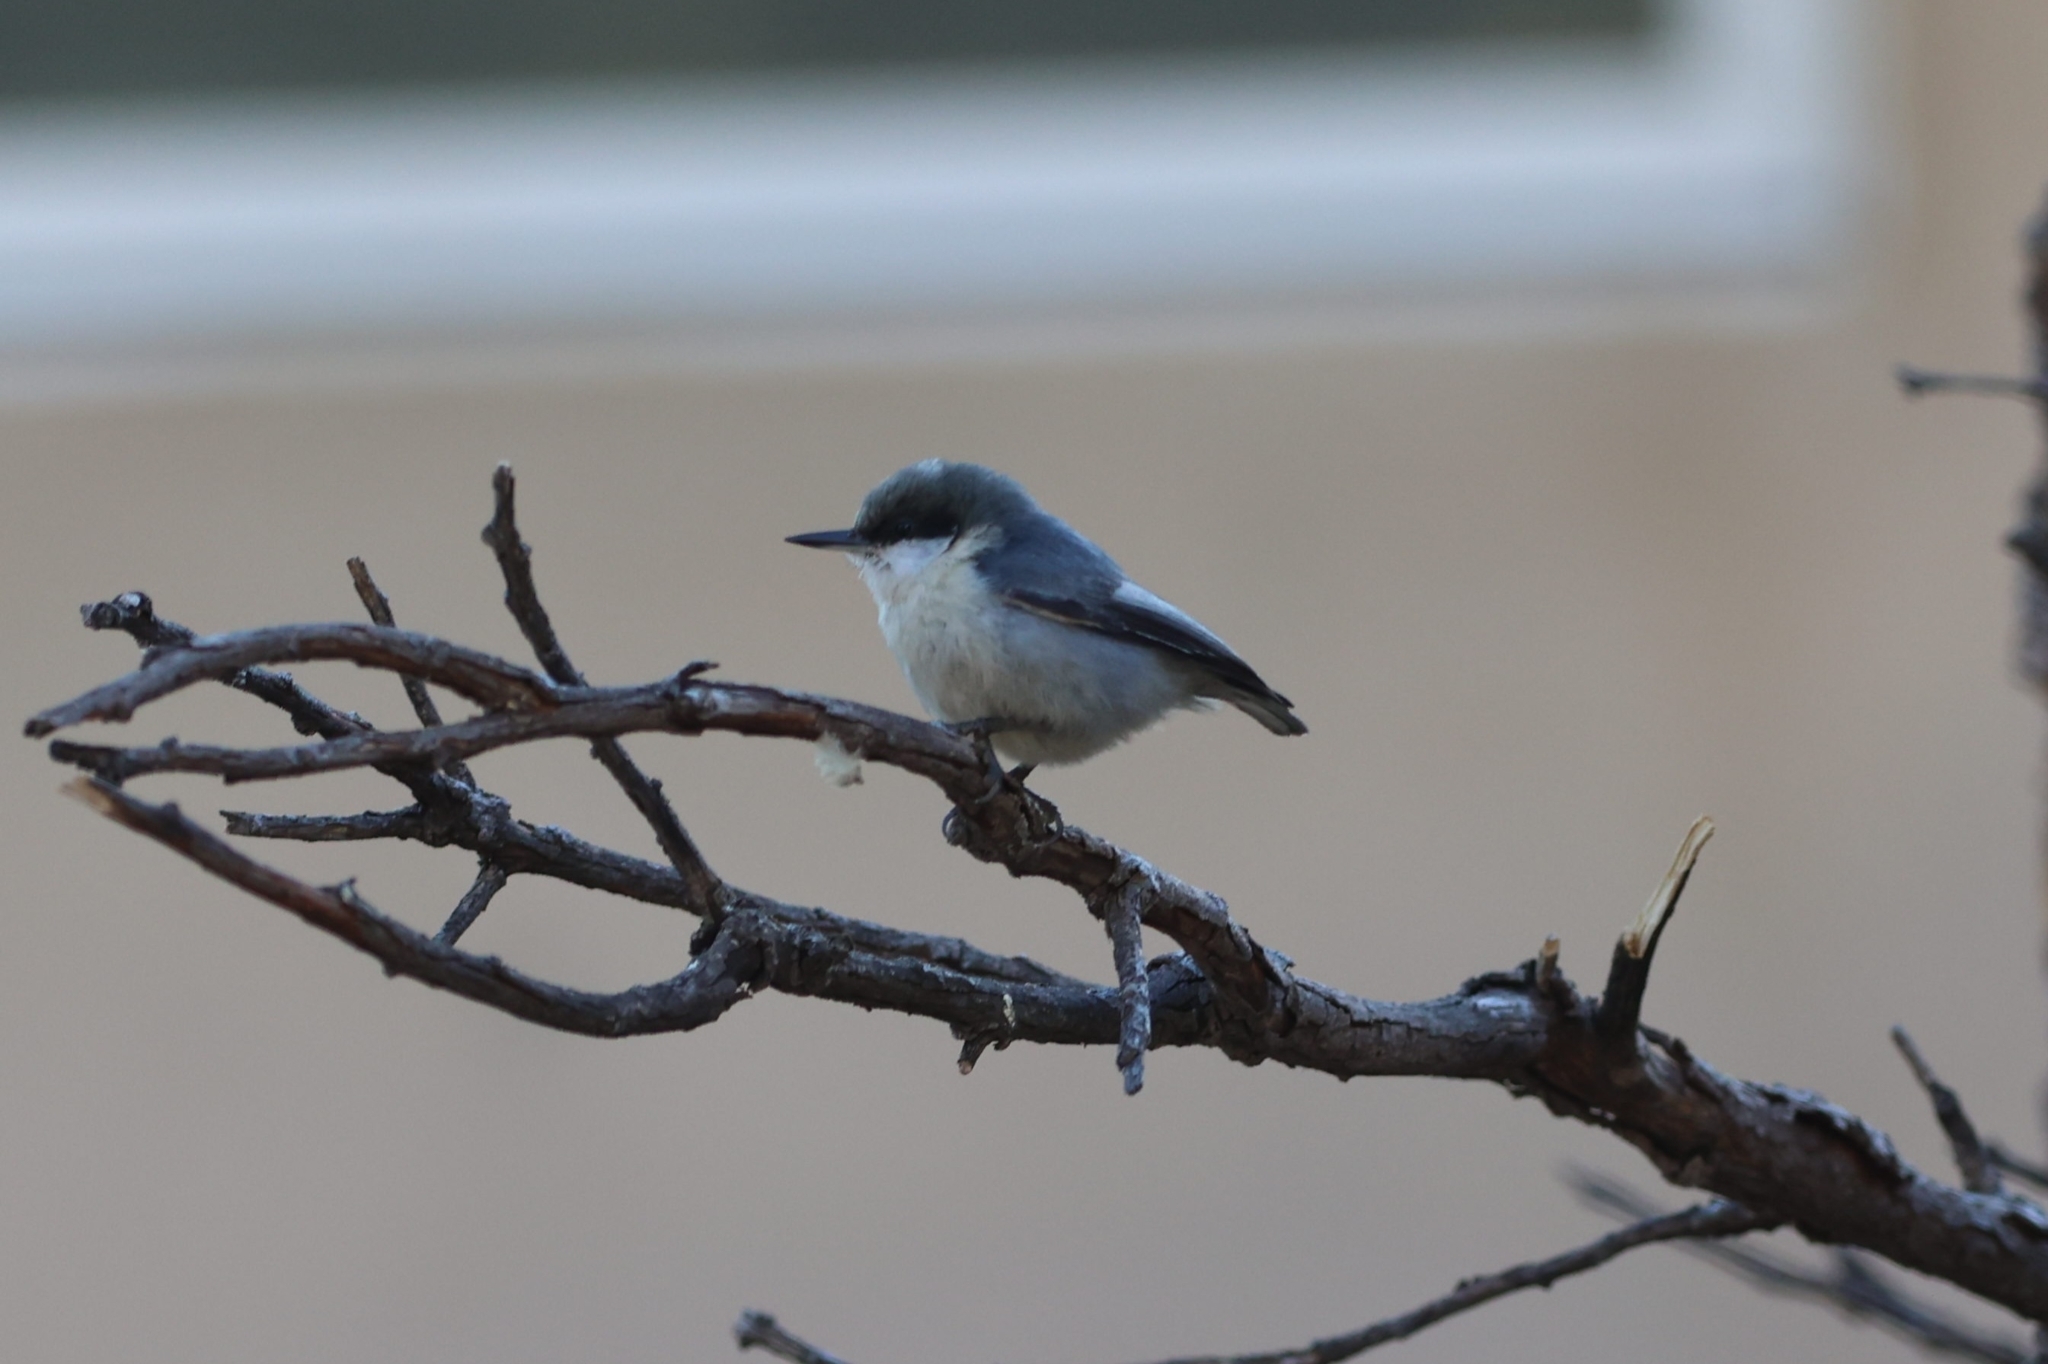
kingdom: Animalia
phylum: Chordata
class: Aves
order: Passeriformes
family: Sittidae
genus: Sitta
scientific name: Sitta pygmaea
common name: Pygmy nuthatch
